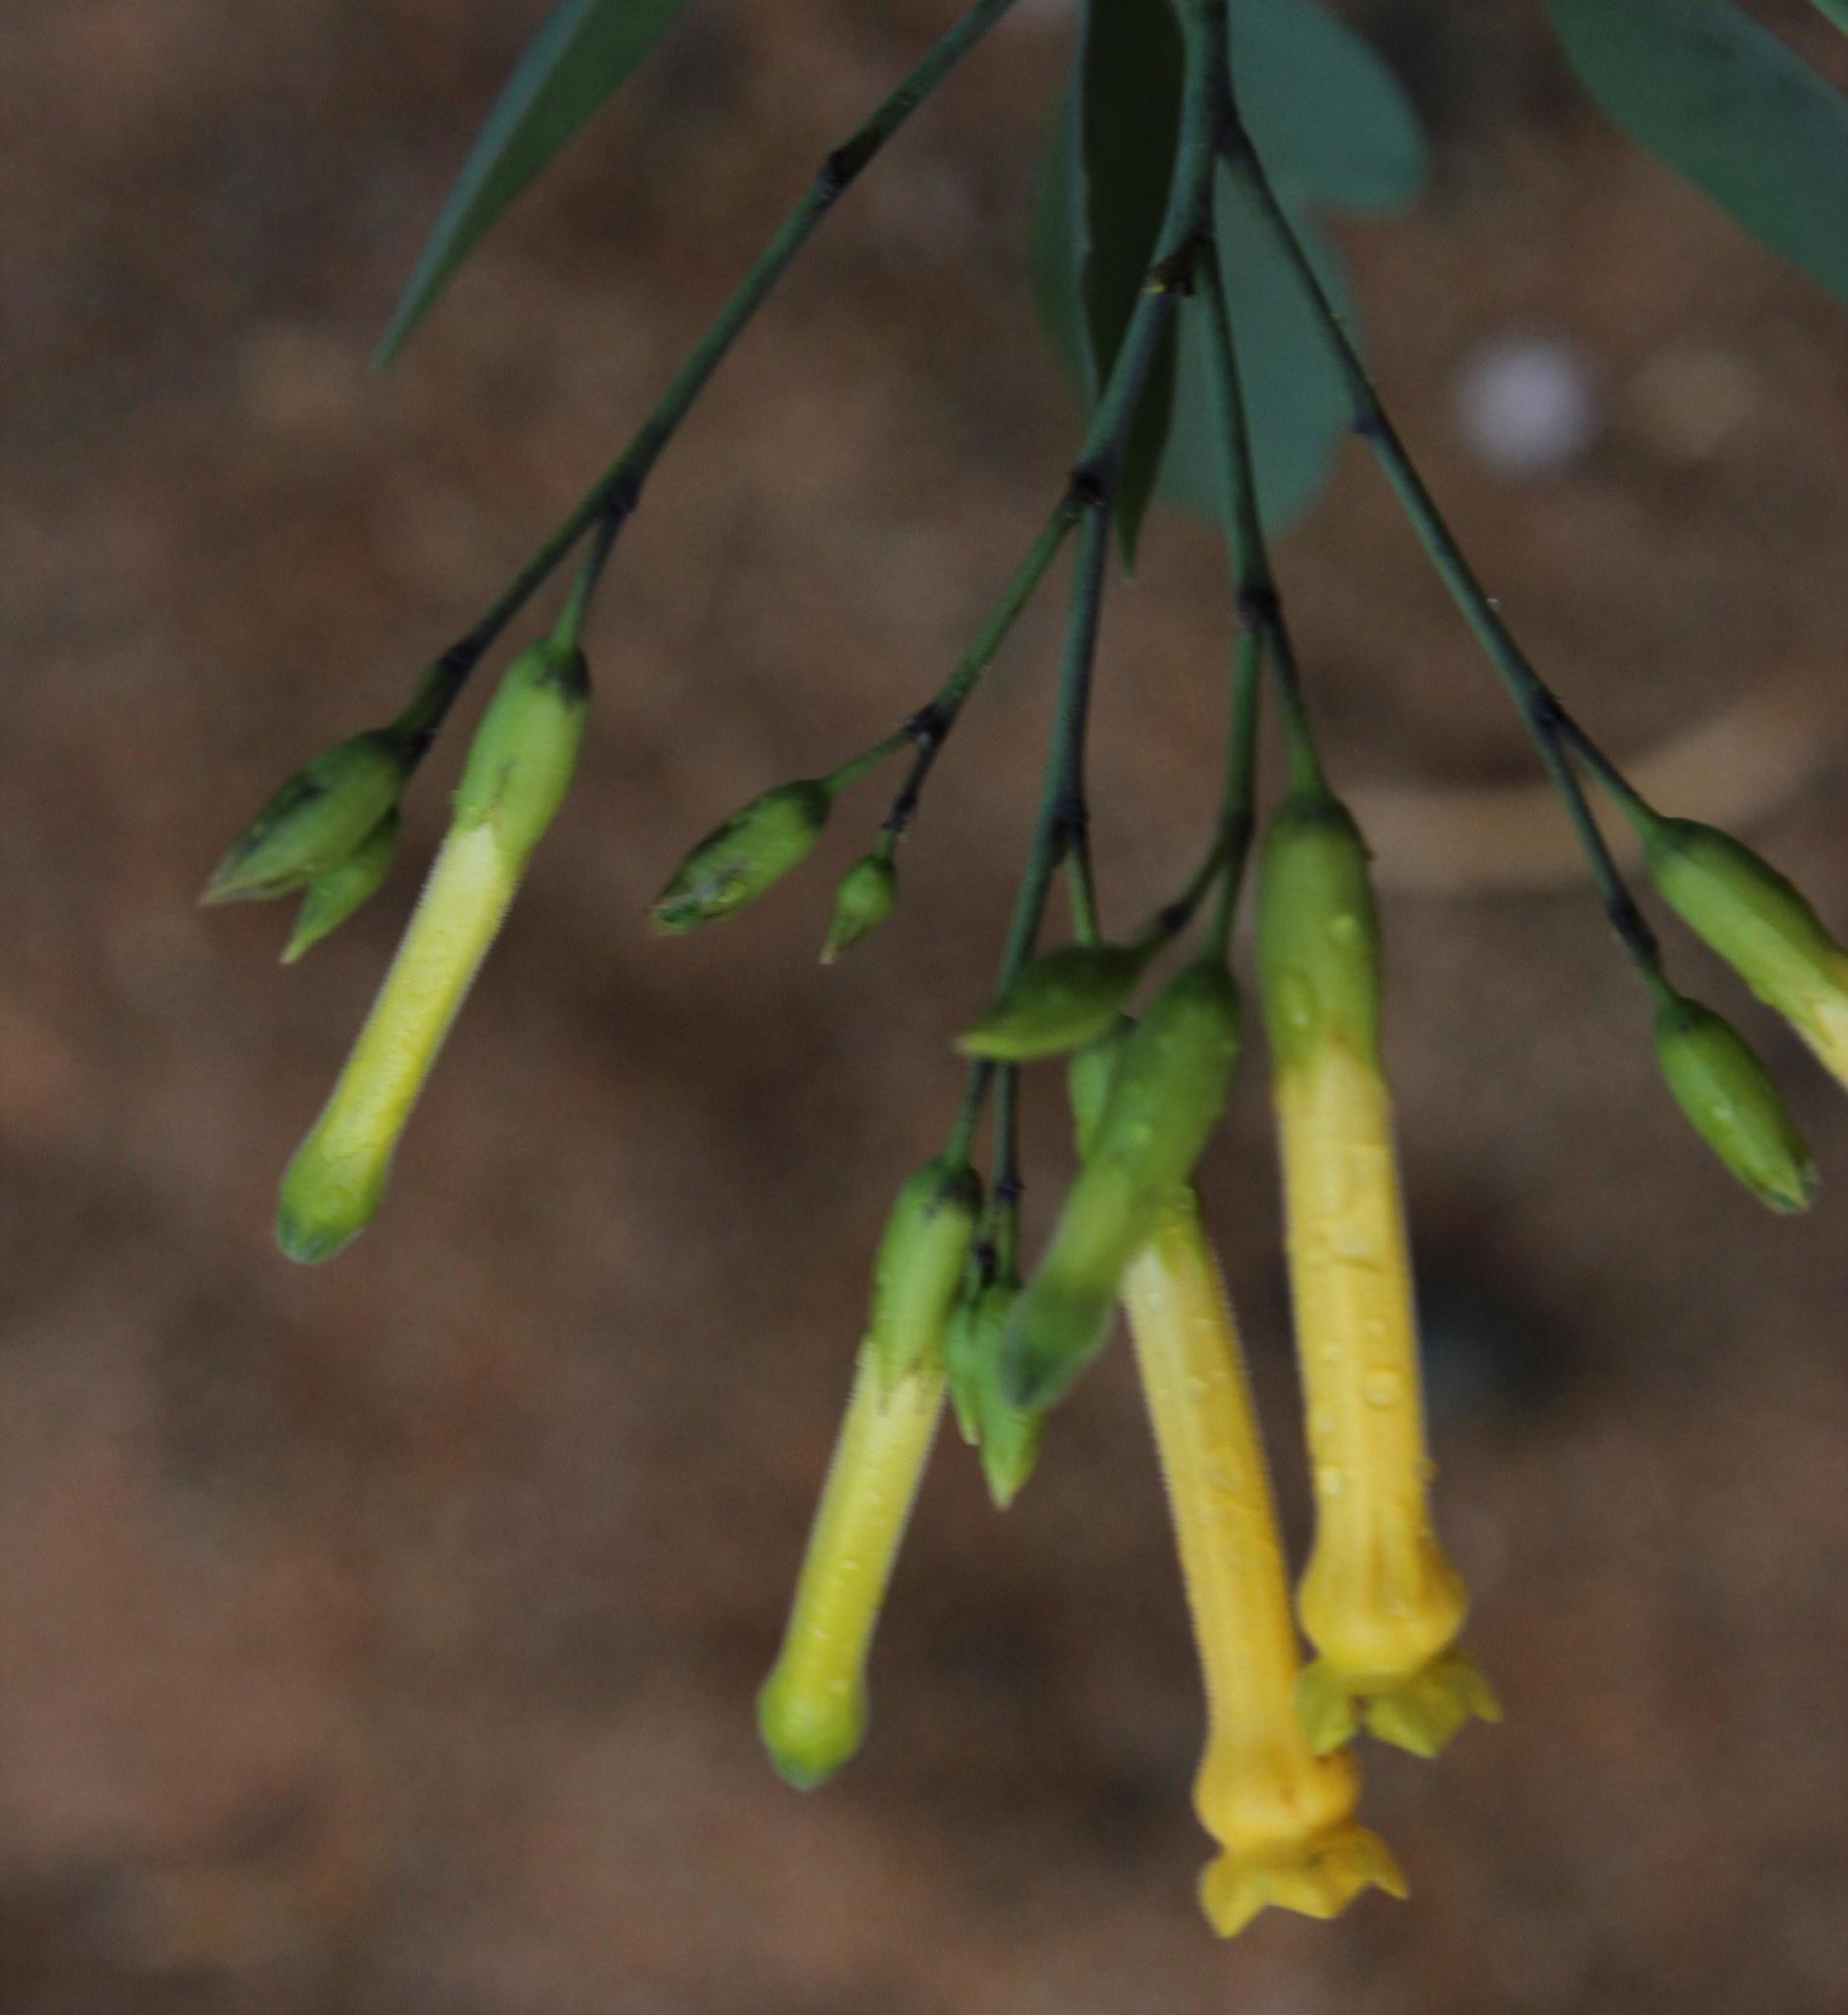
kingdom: Plantae
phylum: Tracheophyta
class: Magnoliopsida
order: Solanales
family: Solanaceae
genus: Nicotiana
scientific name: Nicotiana glauca
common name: Tree tobacco
